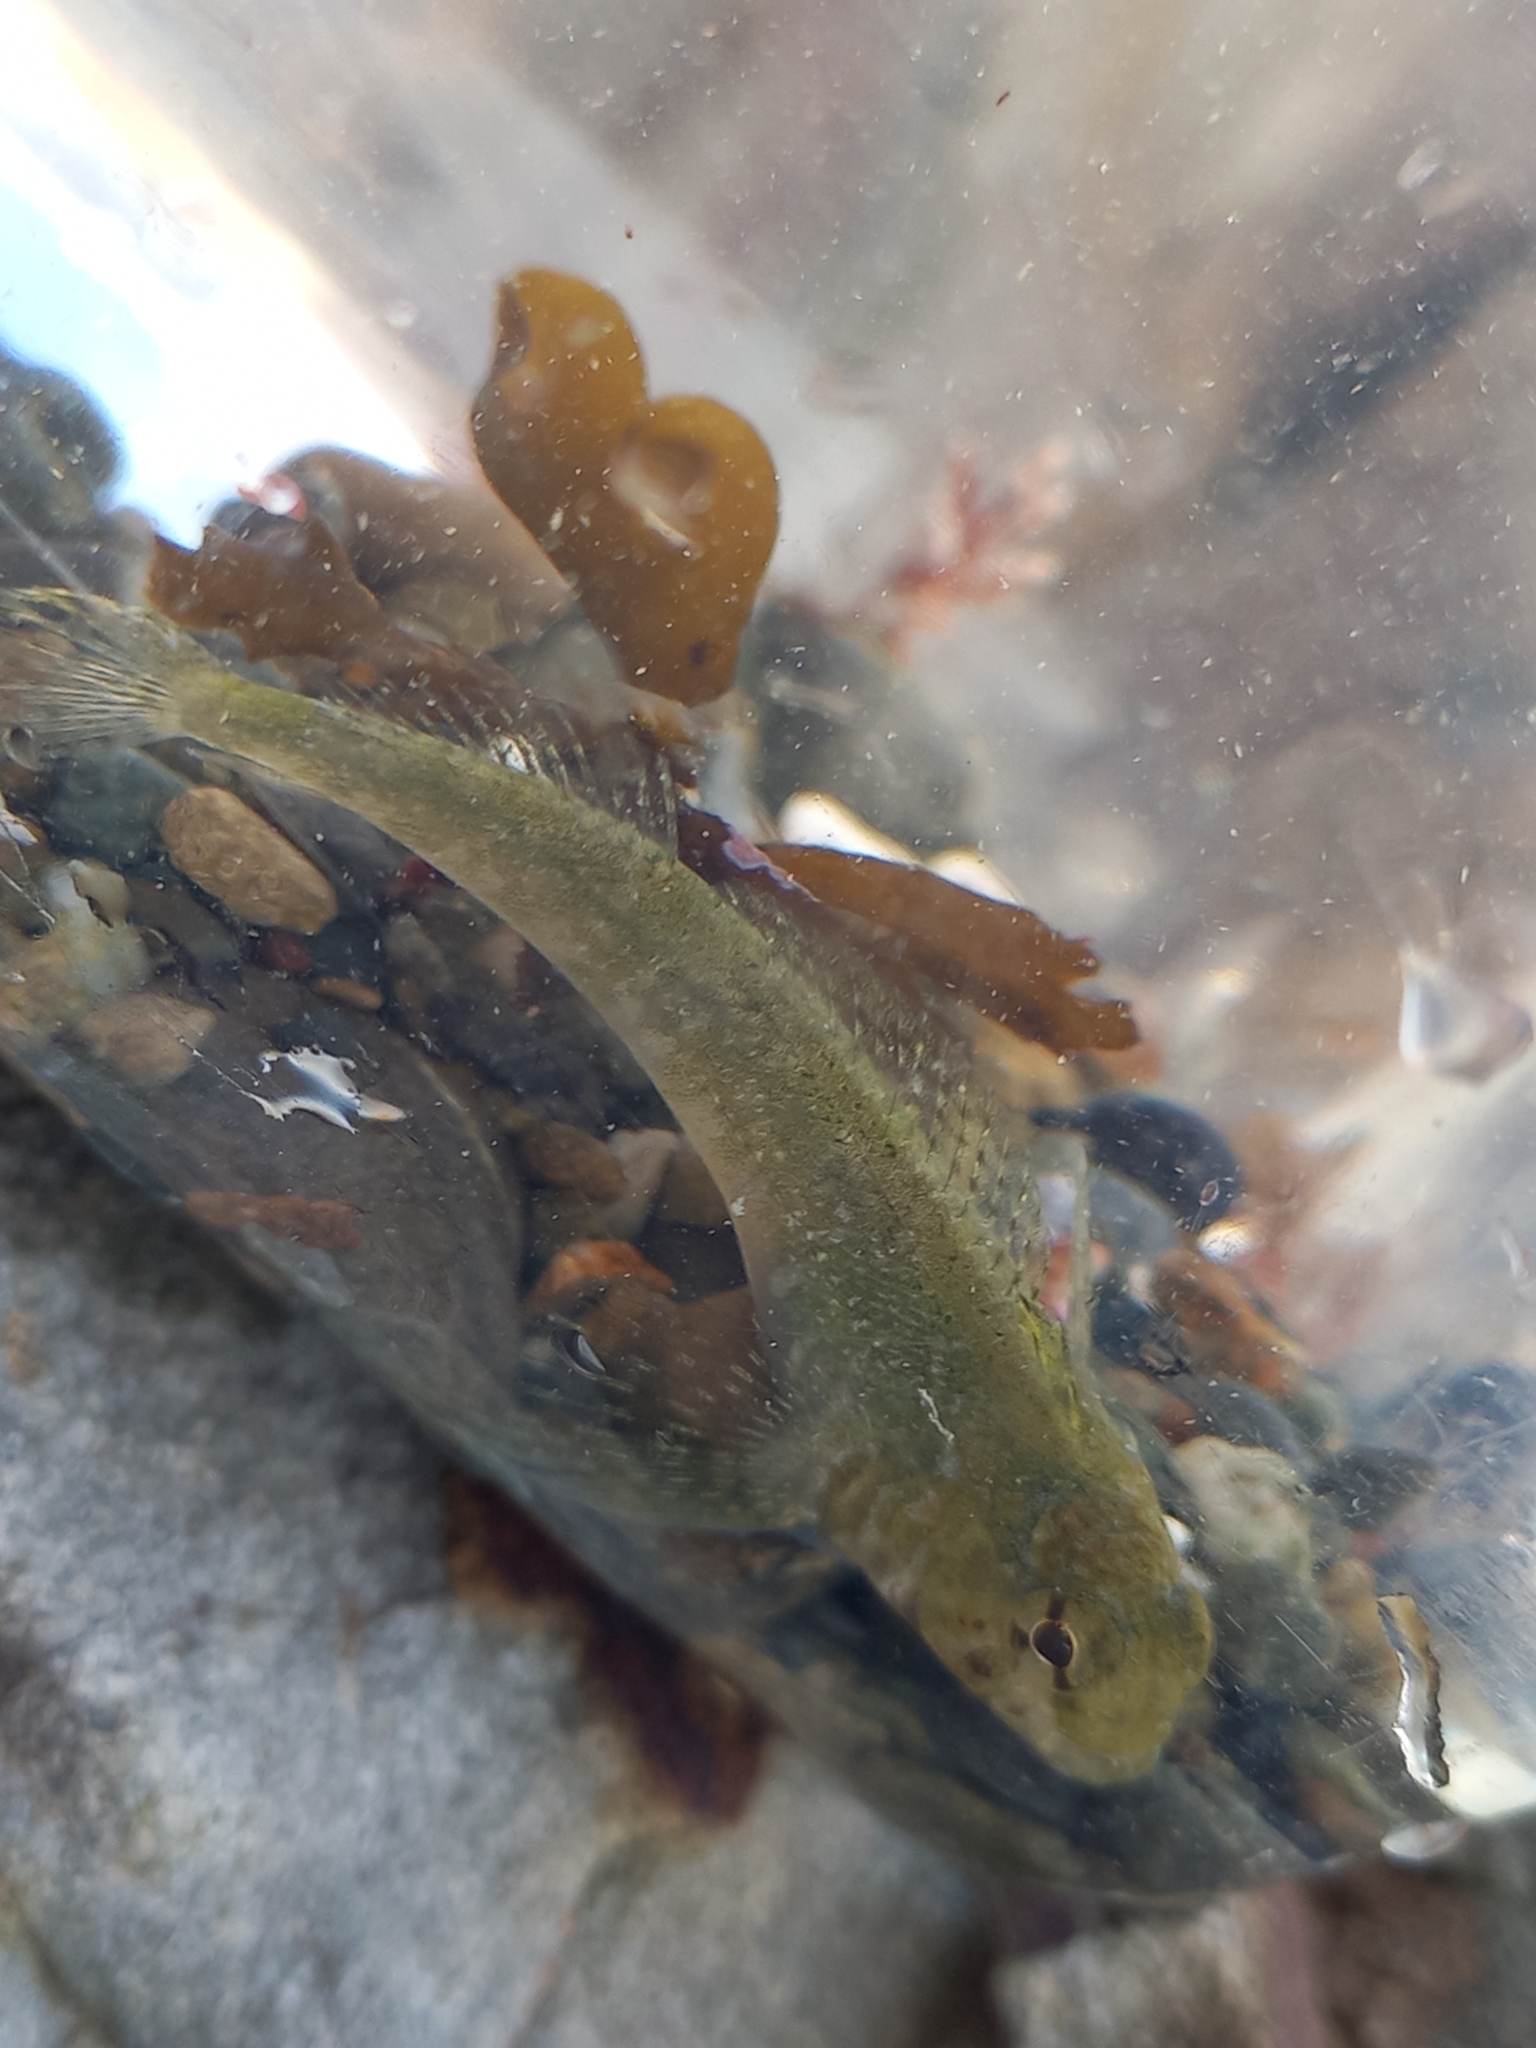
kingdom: Animalia
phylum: Chordata
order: Perciformes
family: Tripterygiidae
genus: Bellapiscis
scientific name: Bellapiscis medius
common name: Twister
